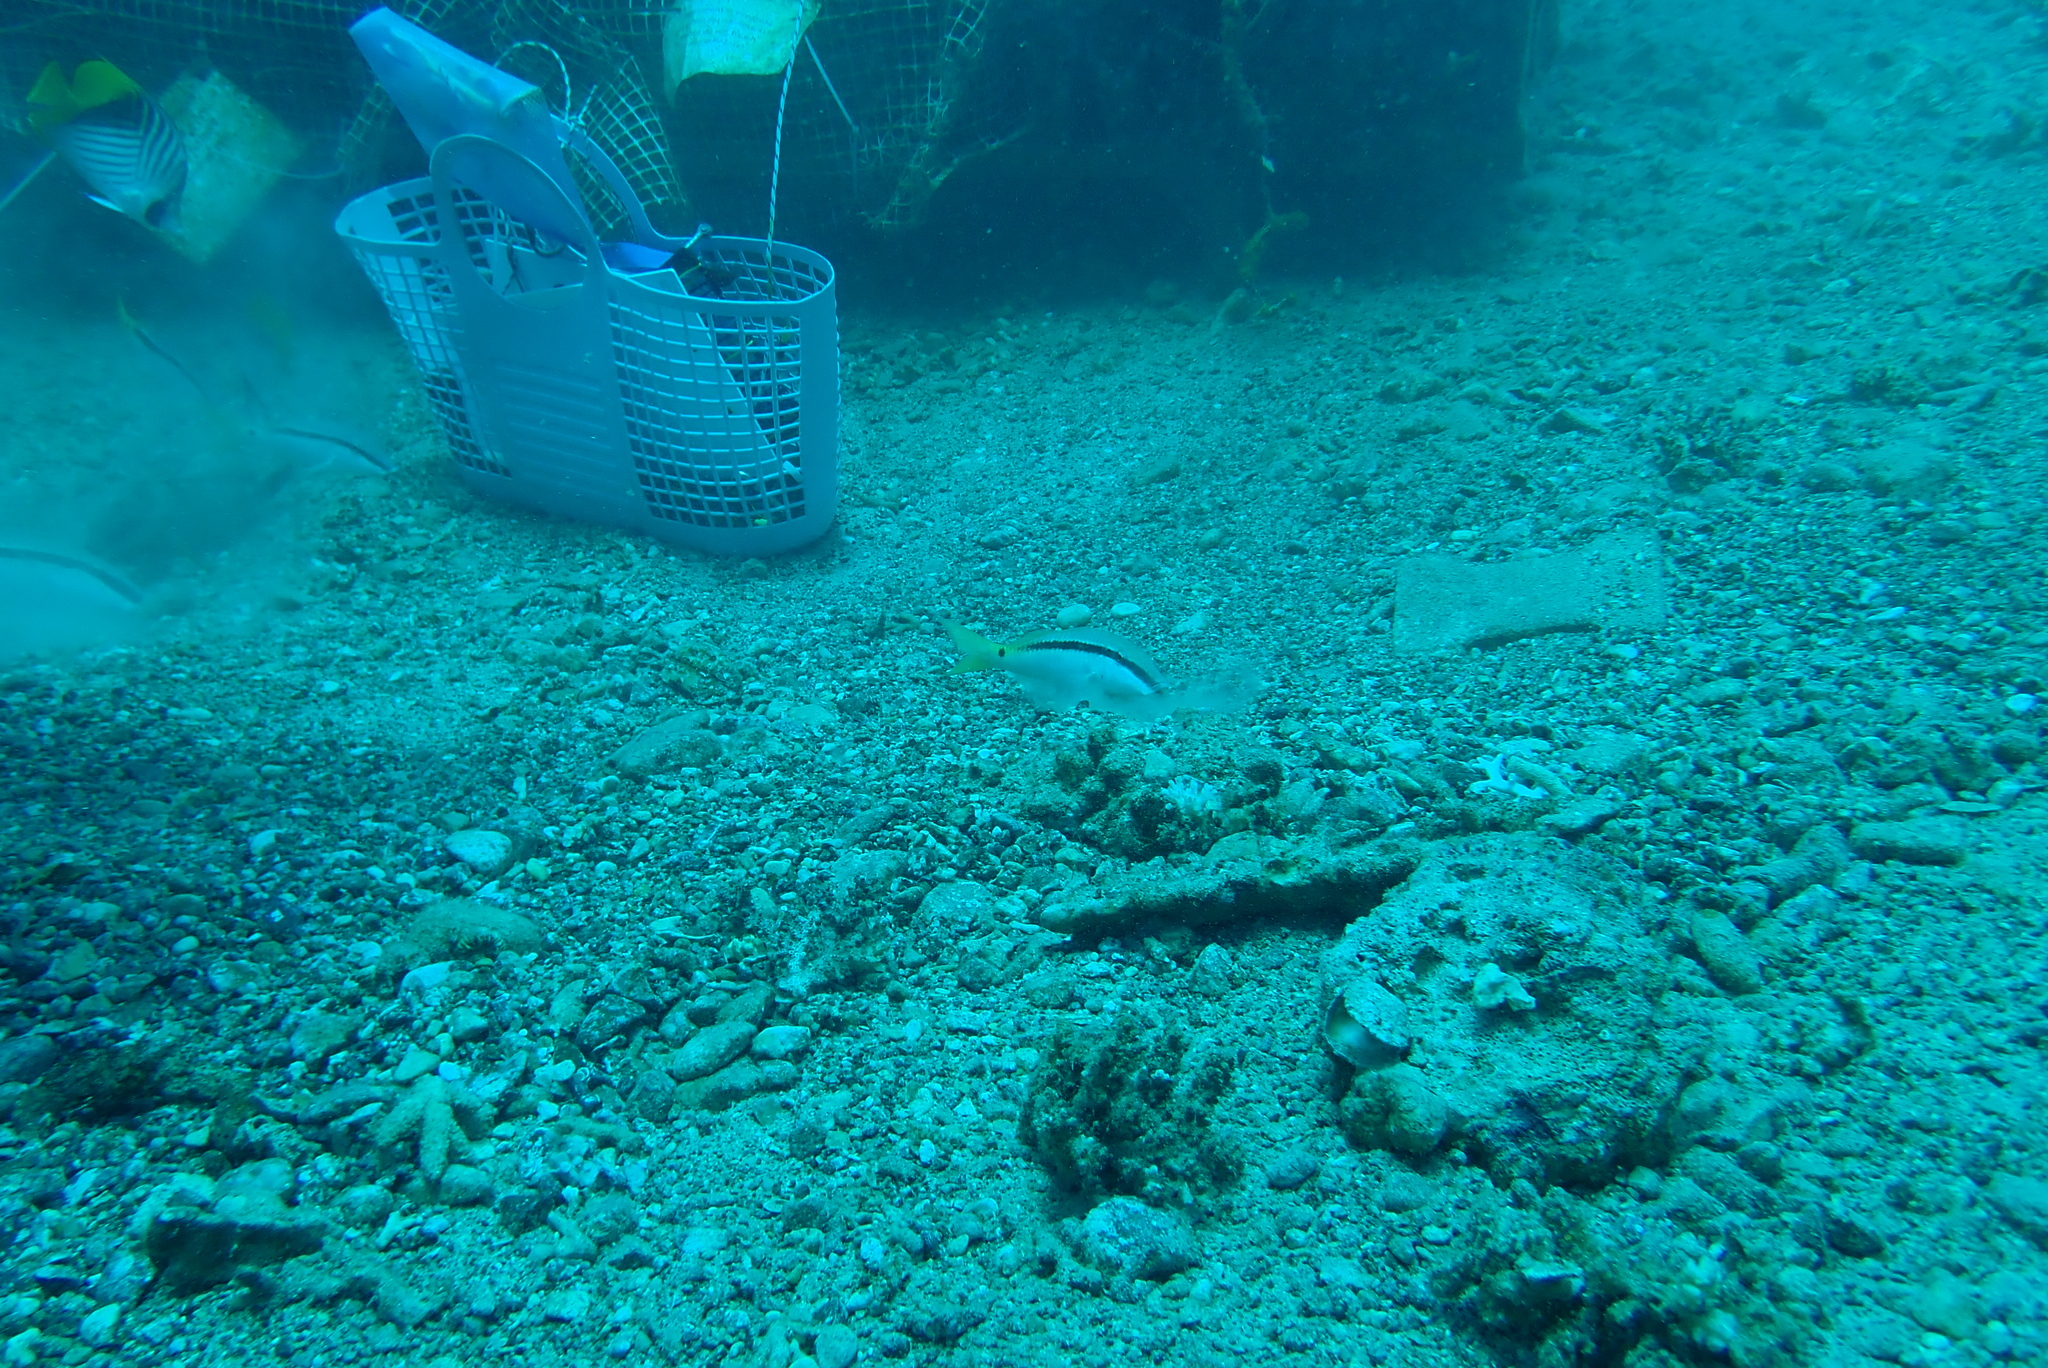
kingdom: Animalia
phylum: Chordata
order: Perciformes
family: Chaetodontidae
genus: Chaetodon
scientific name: Chaetodon auriga
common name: Threadfin butterflyfish
